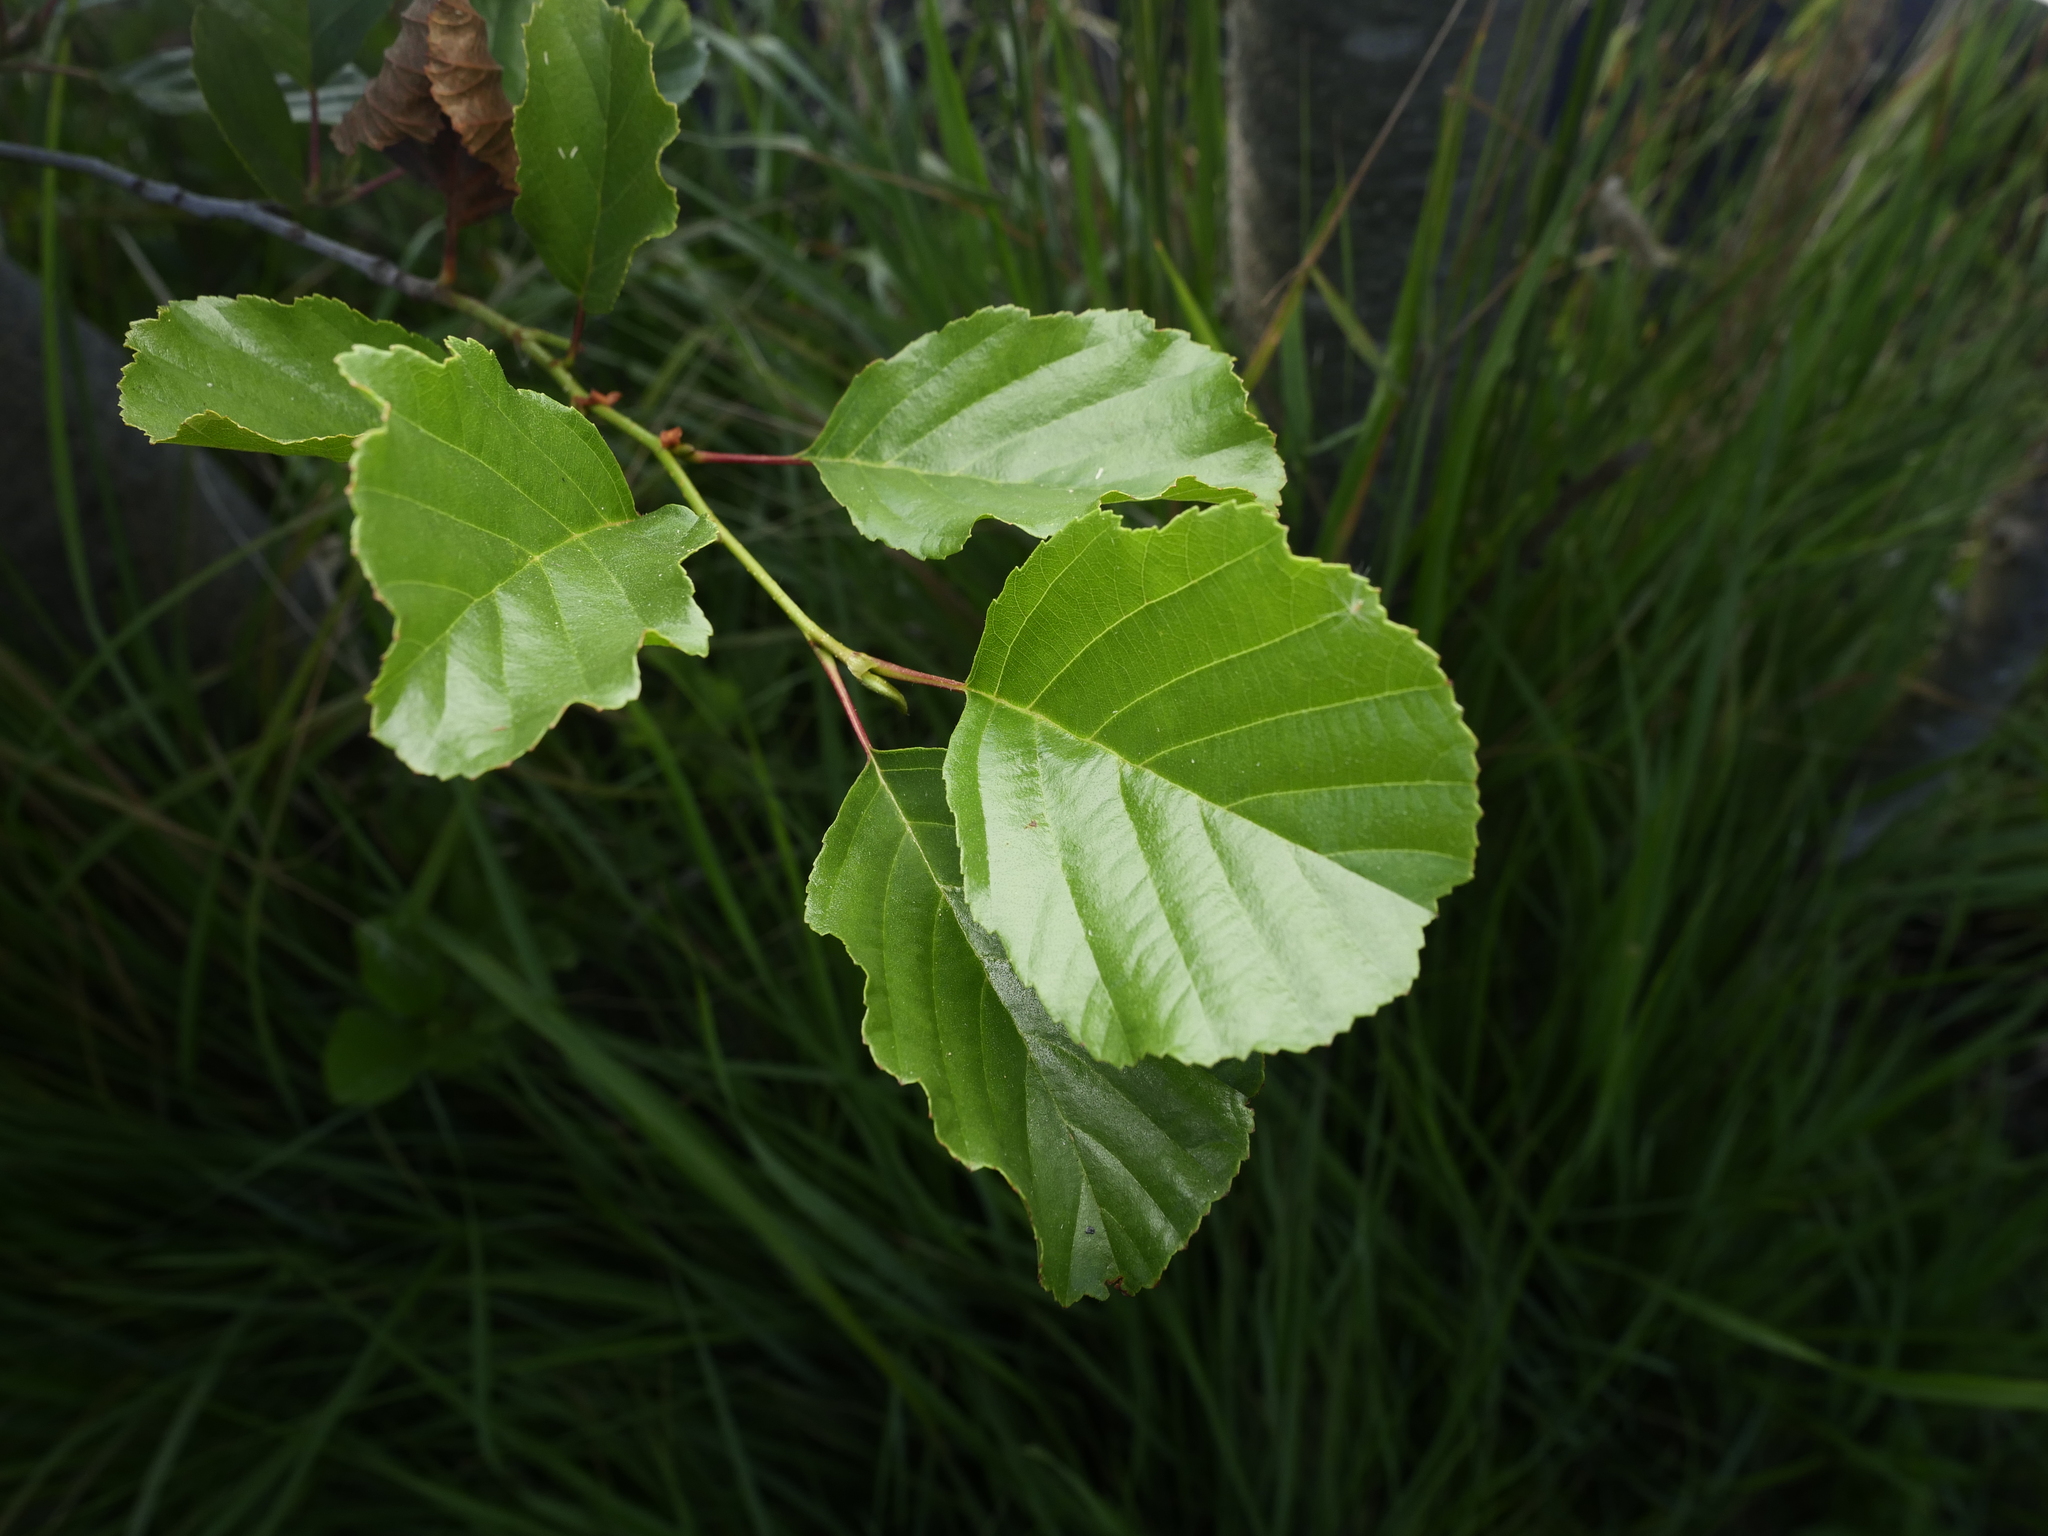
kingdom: Plantae
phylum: Tracheophyta
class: Magnoliopsida
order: Fagales
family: Betulaceae
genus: Alnus
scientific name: Alnus glutinosa
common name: Black alder
